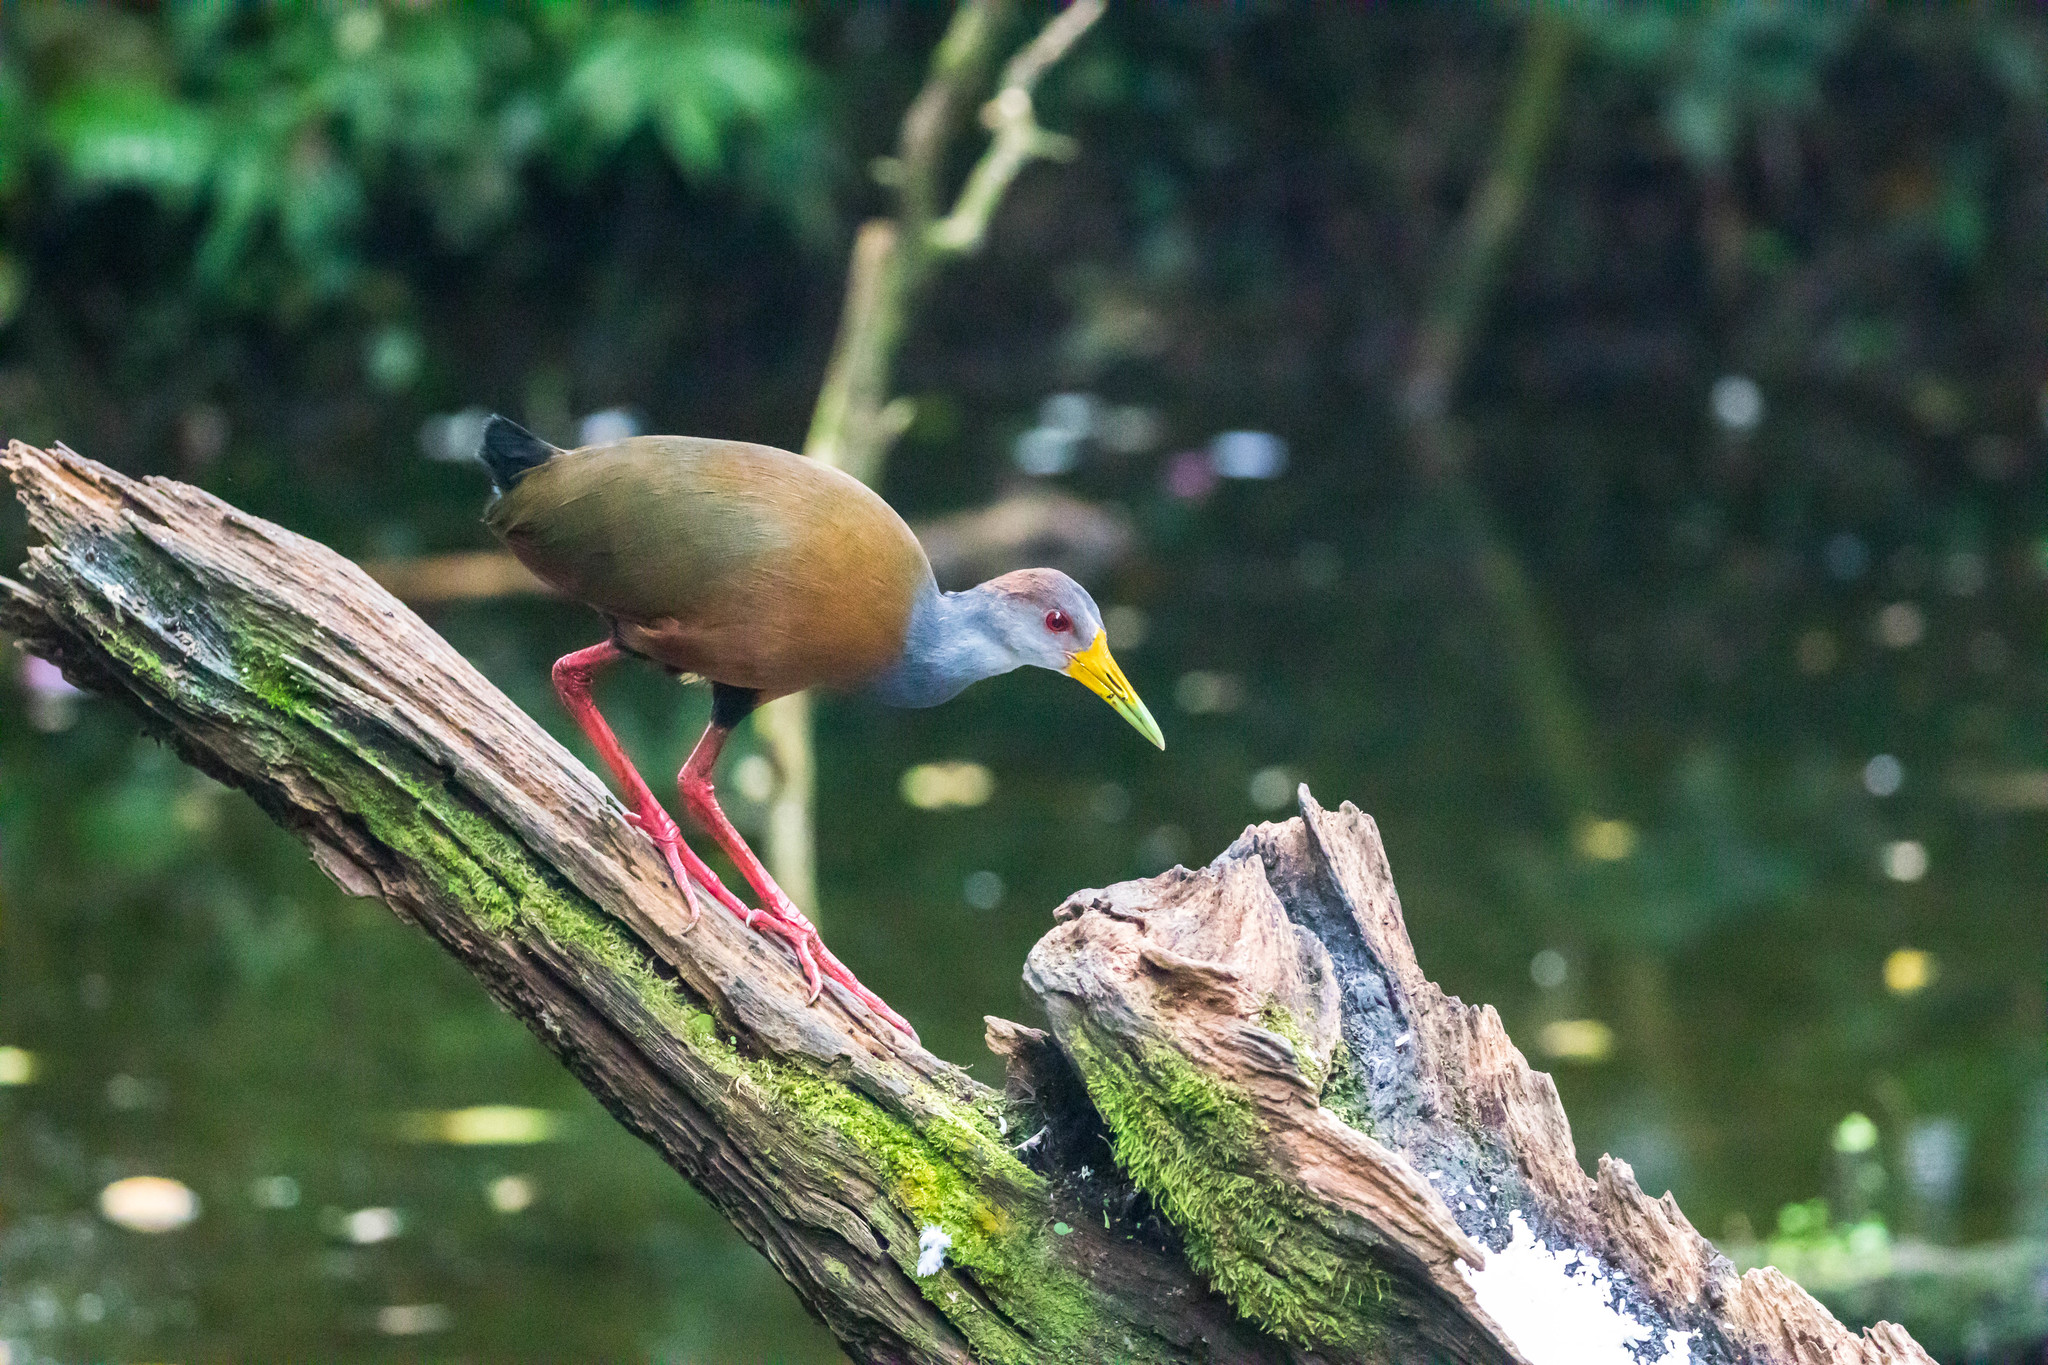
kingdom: Animalia
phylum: Chordata
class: Aves
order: Gruiformes
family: Rallidae
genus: Aramides
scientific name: Aramides albiventris
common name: Russet-naped wood-rail
